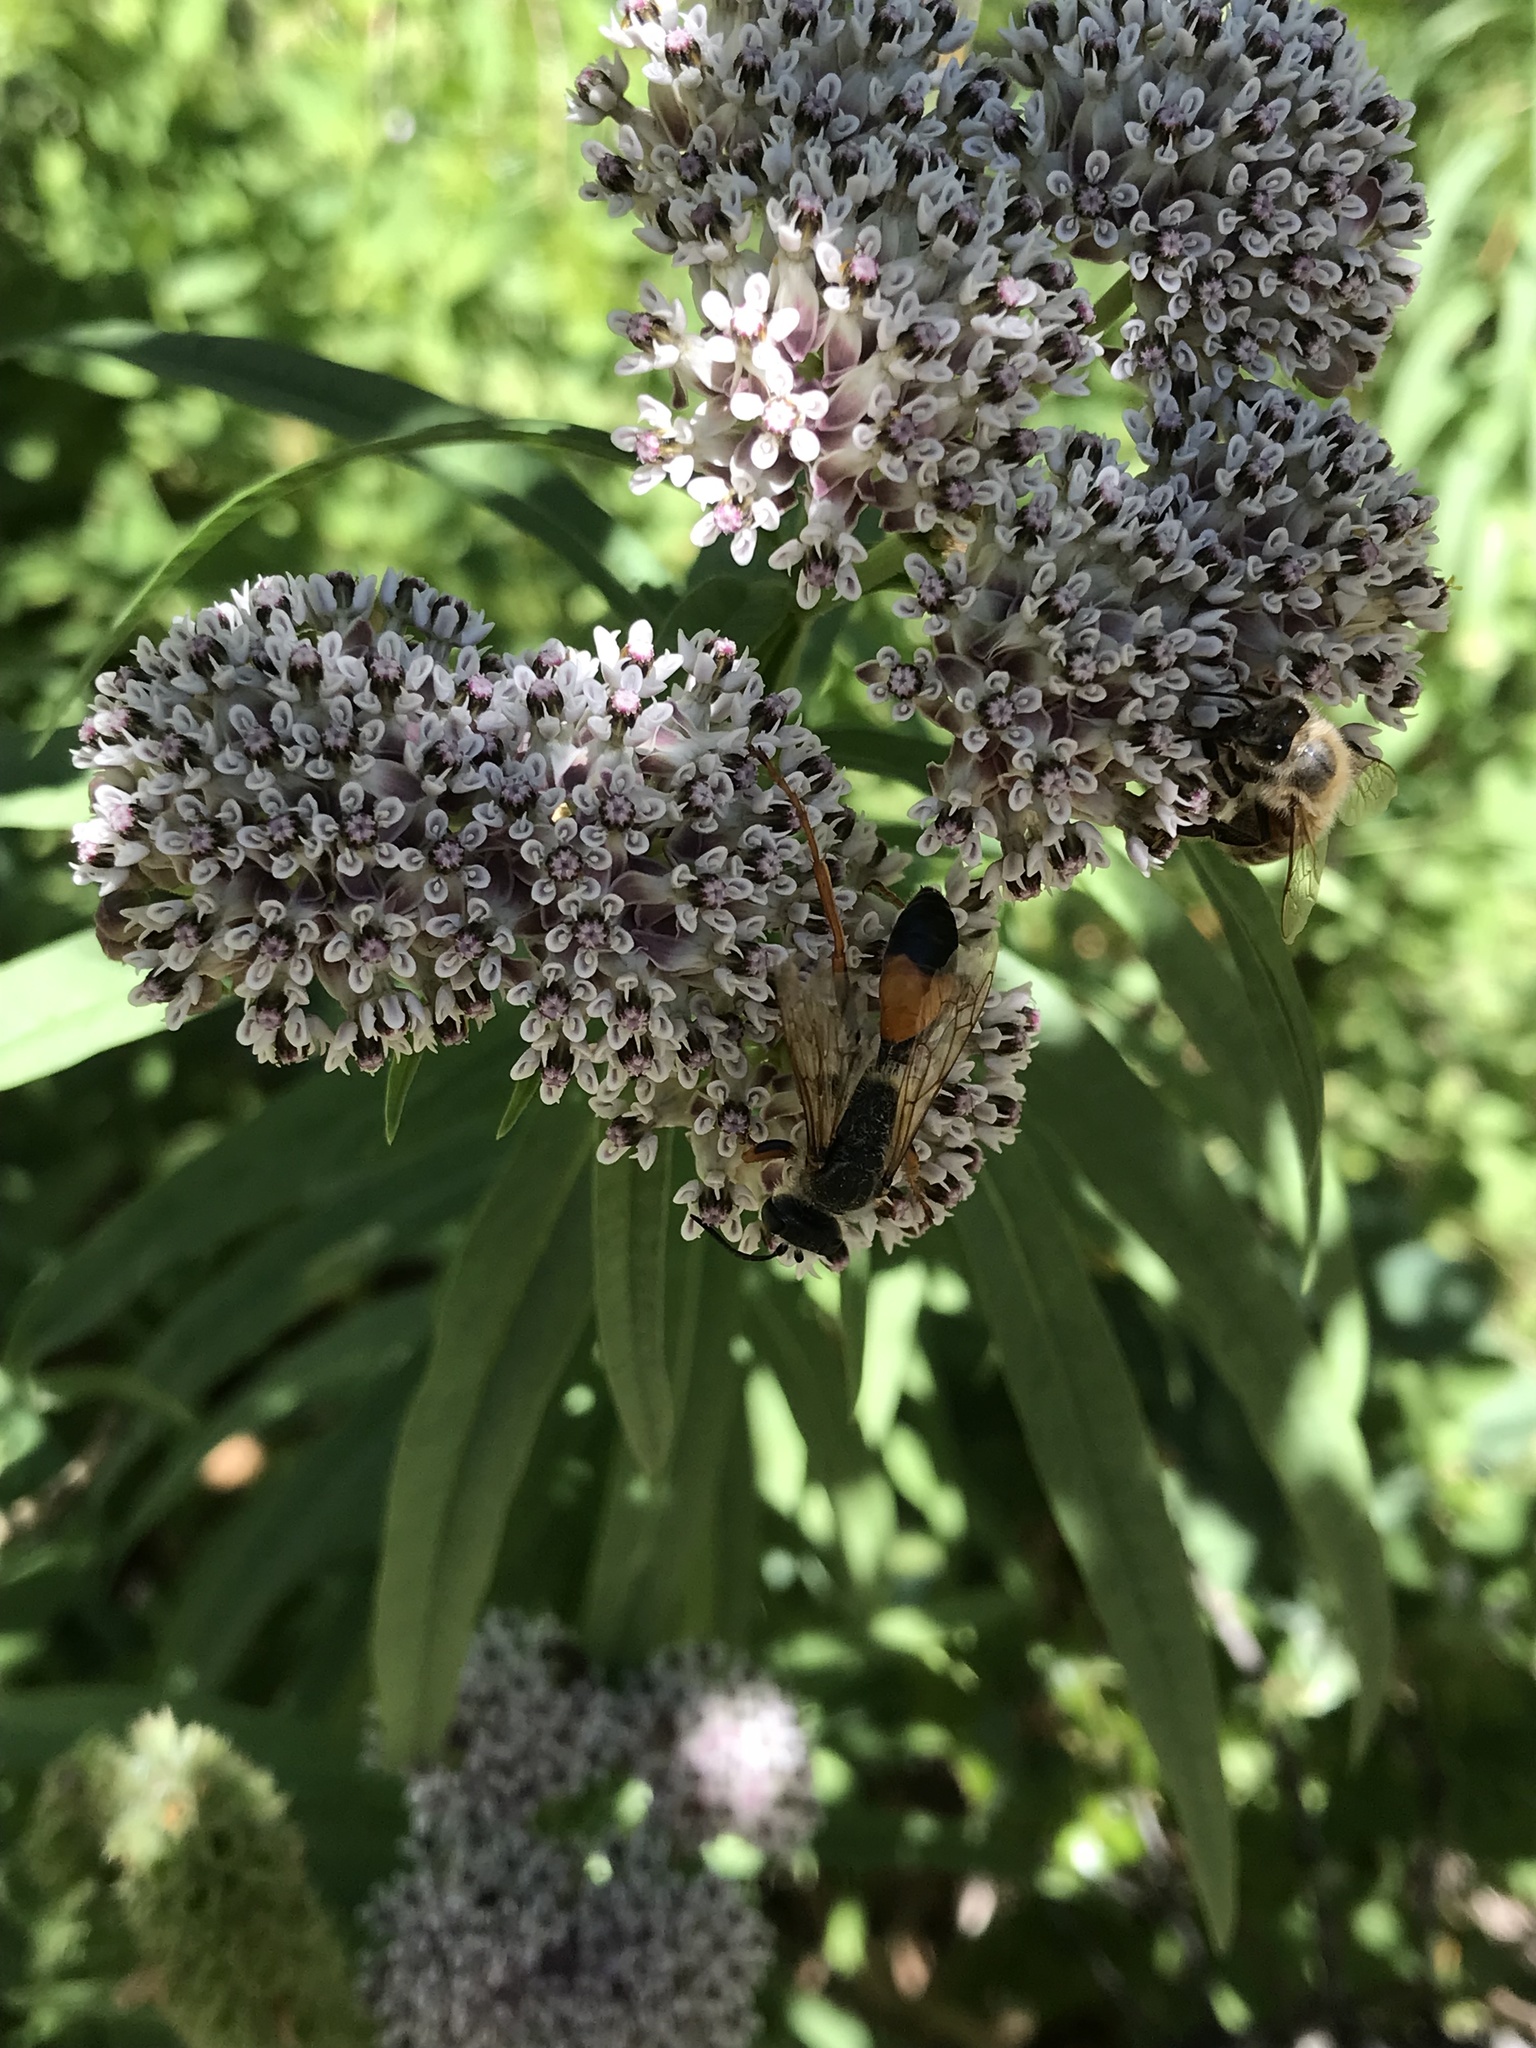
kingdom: Animalia
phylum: Arthropoda
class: Insecta
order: Hymenoptera
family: Sphecidae
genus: Sphex
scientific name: Sphex ichneumoneus
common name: Great golden digger wasp
